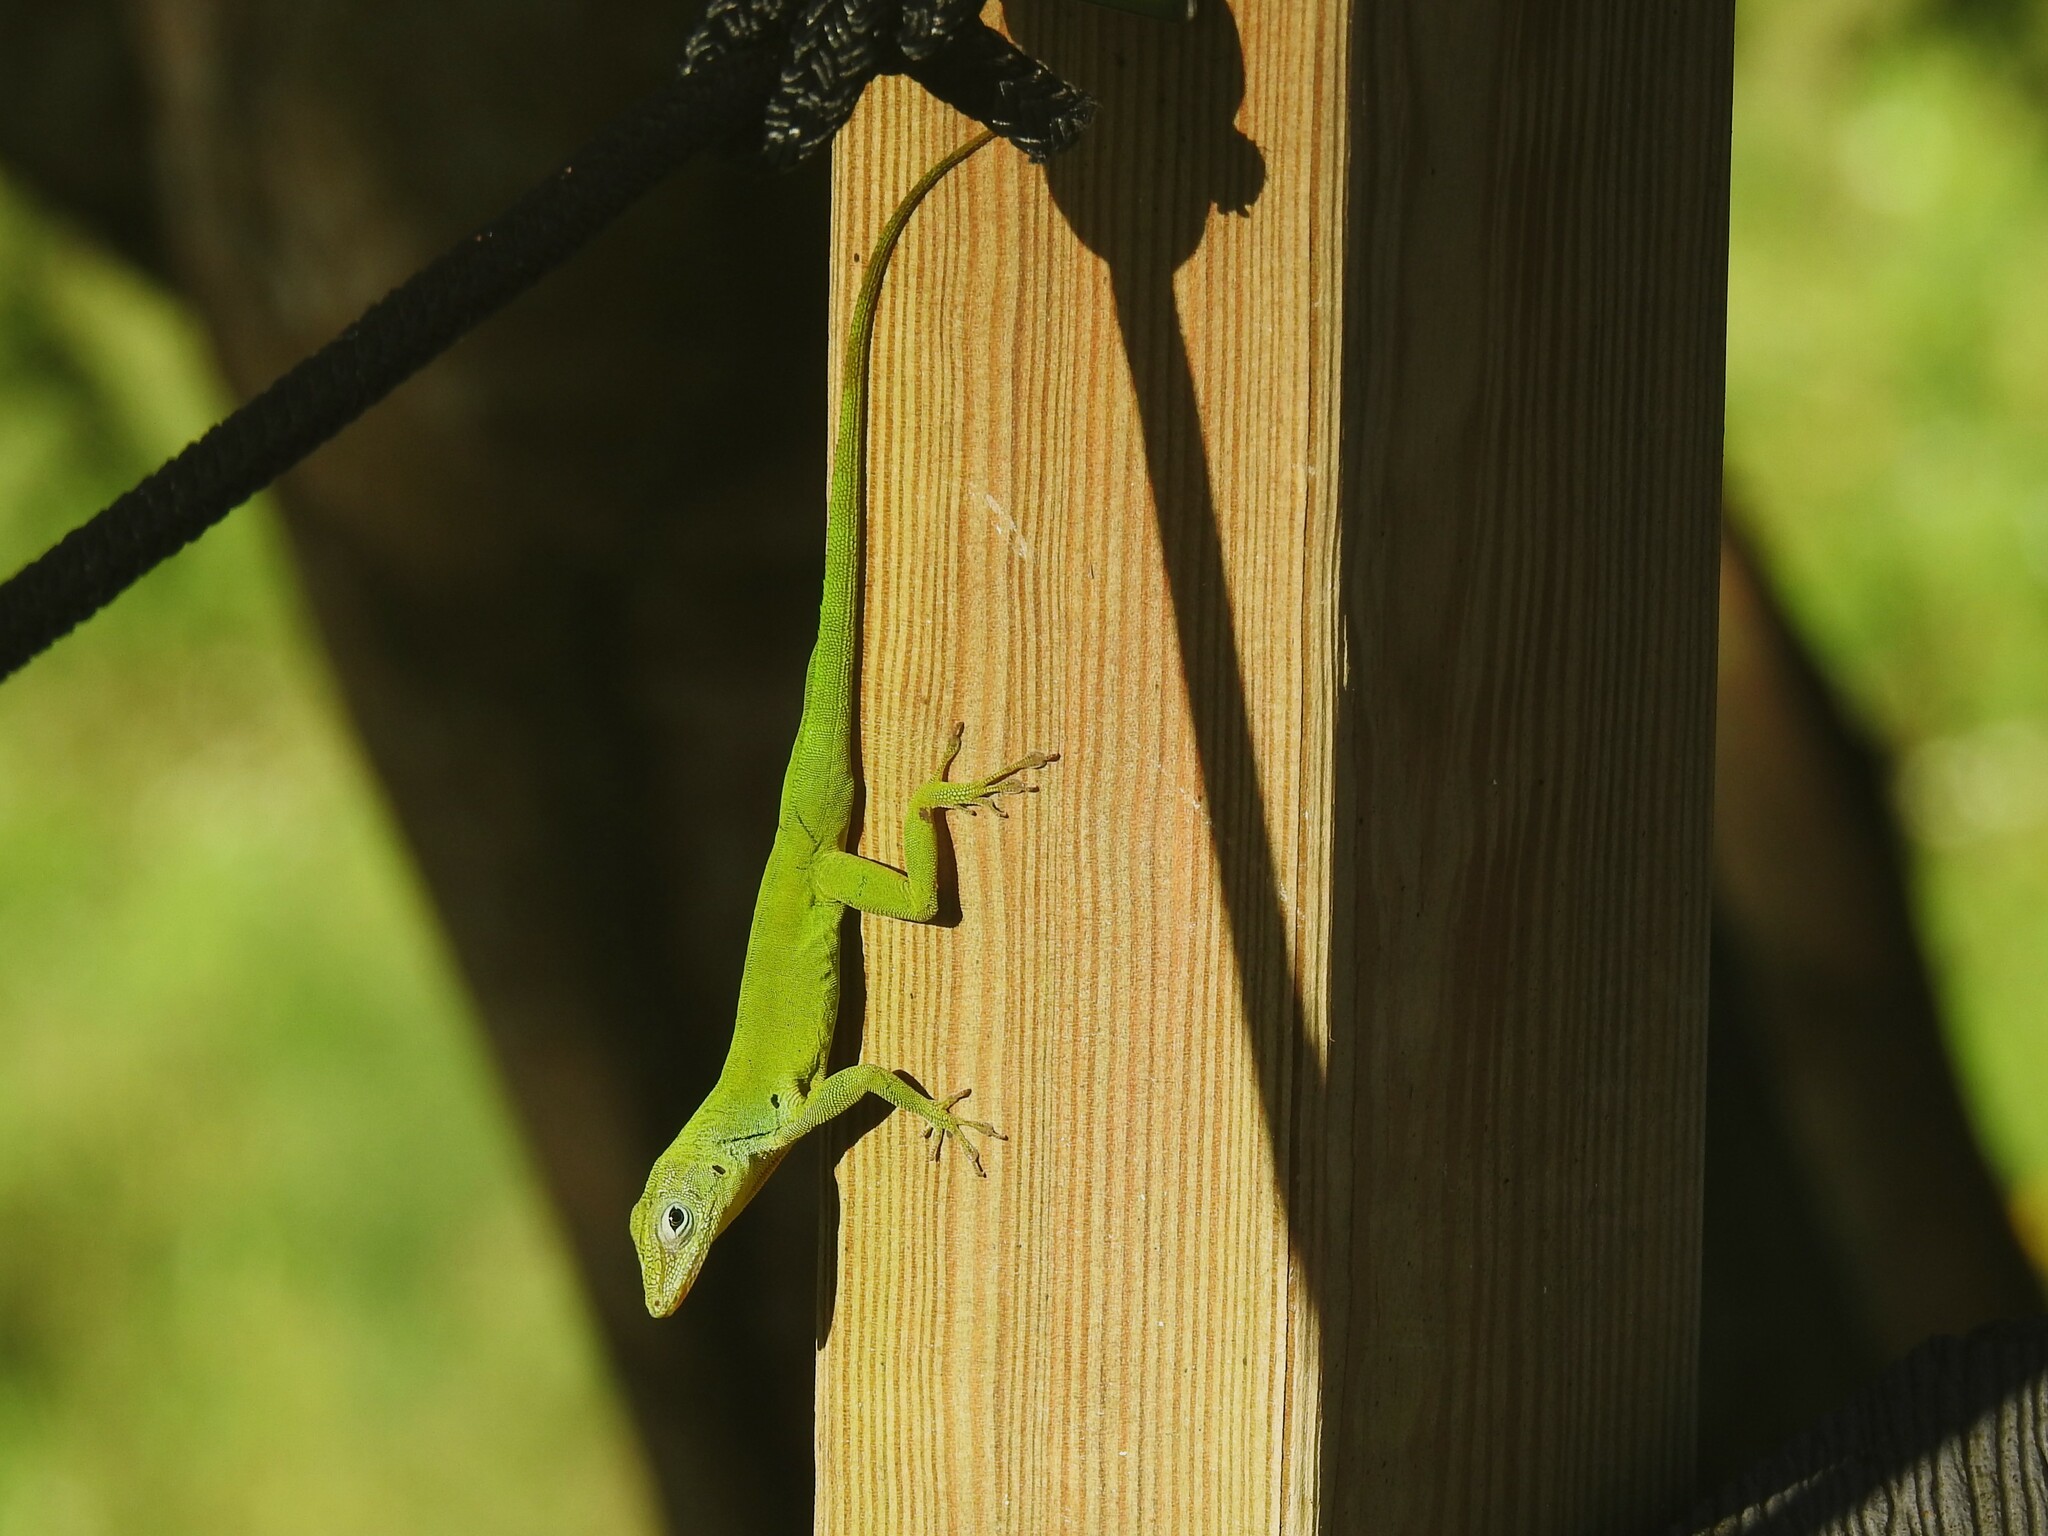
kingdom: Animalia
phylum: Chordata
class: Squamata
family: Dactyloidae
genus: Anolis
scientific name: Anolis marmoratus
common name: Guadeloupe anole
